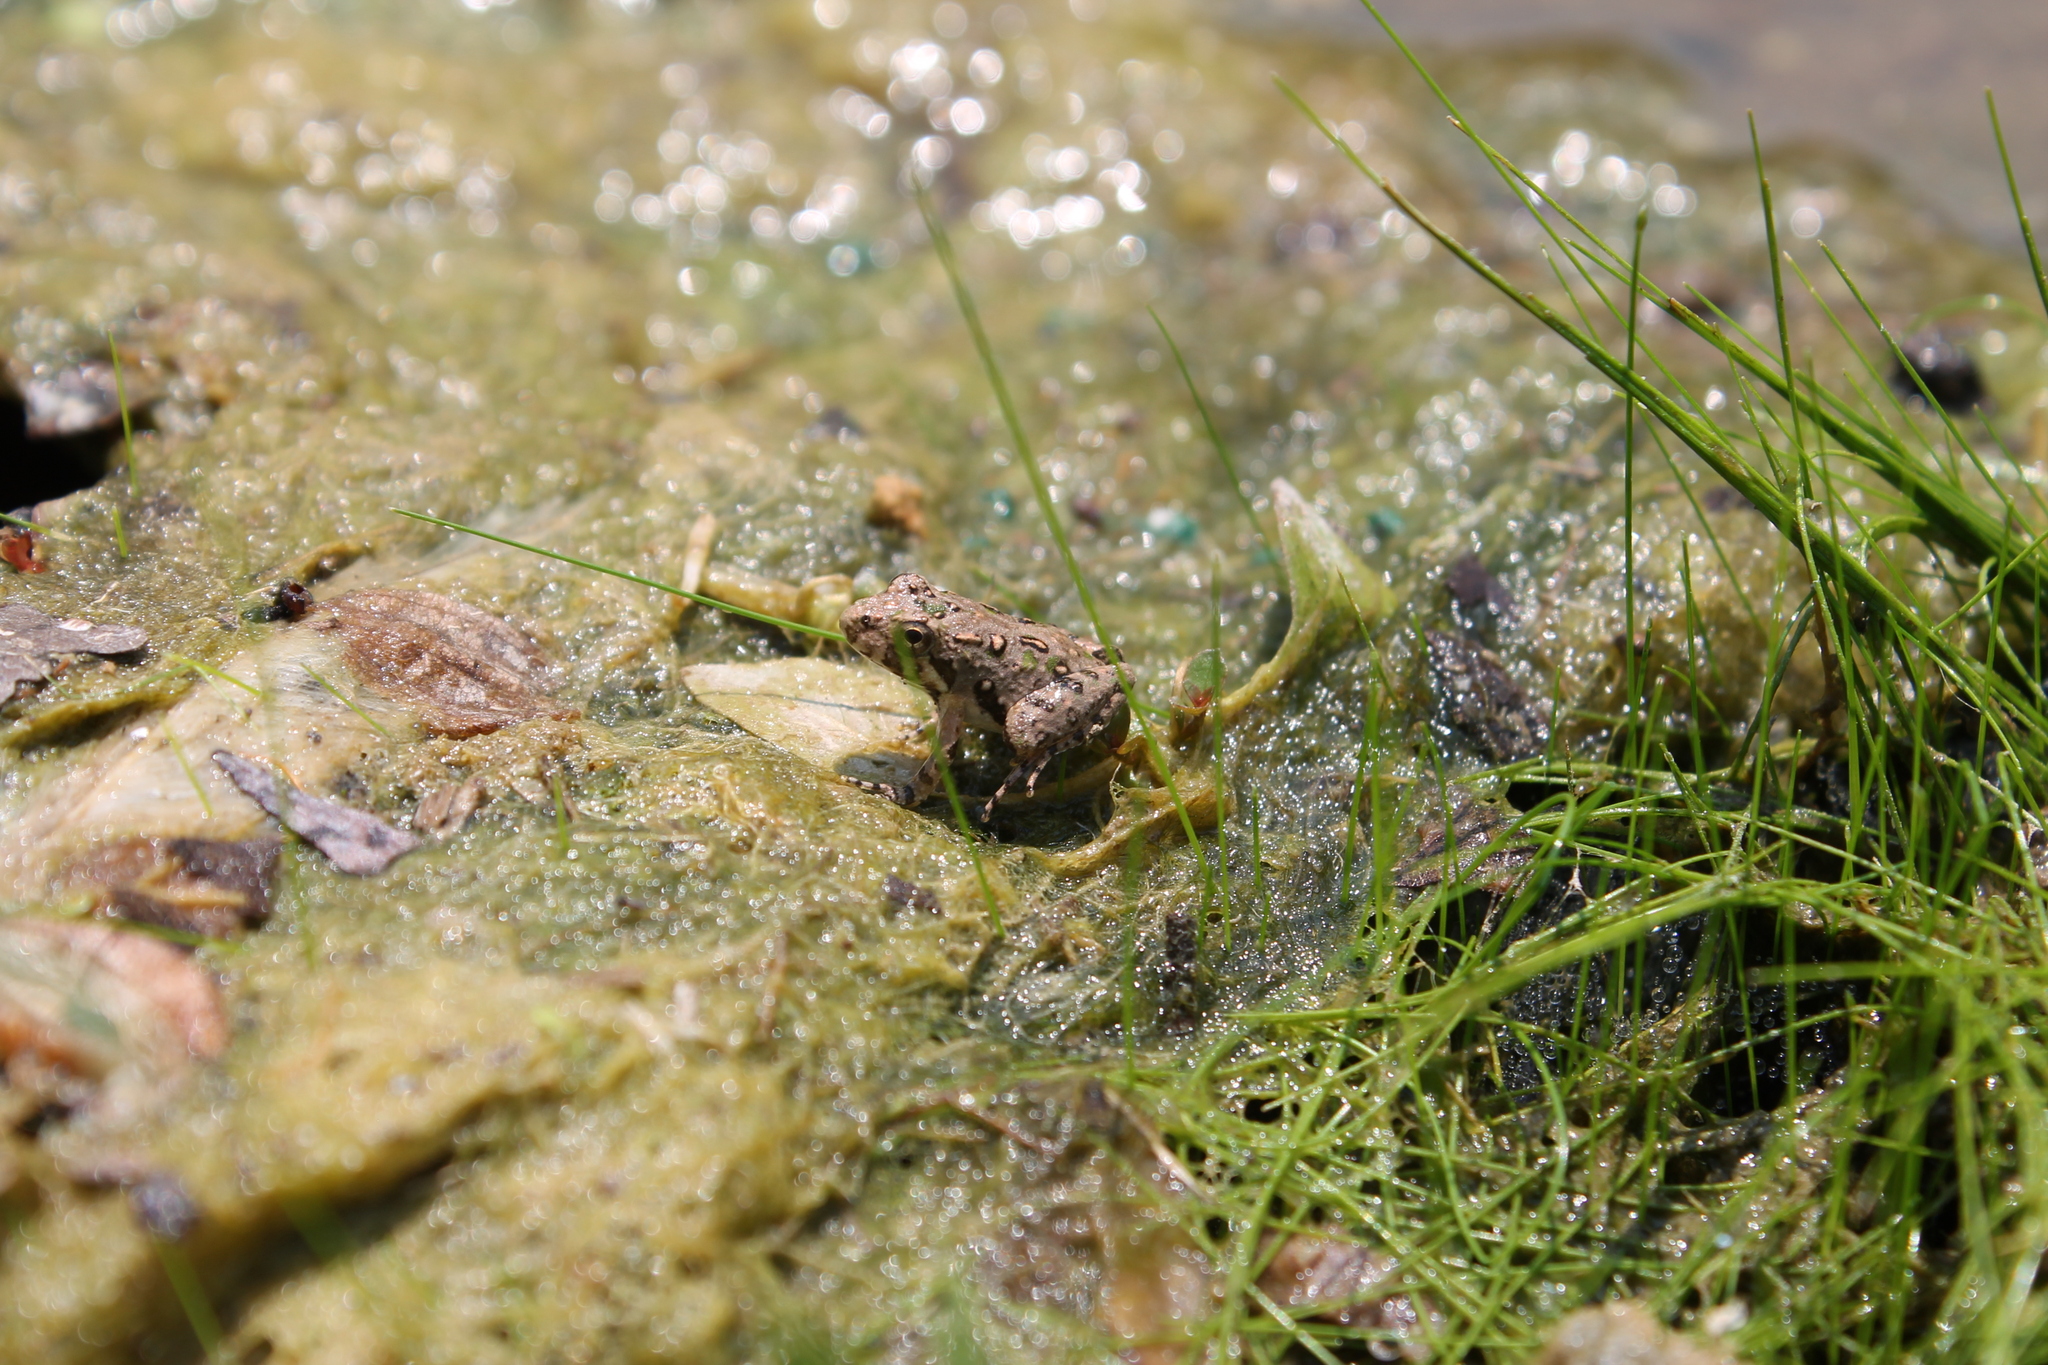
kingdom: Animalia
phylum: Chordata
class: Amphibia
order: Anura
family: Hylidae
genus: Acris
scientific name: Acris crepitans
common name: Northern cricket frog
